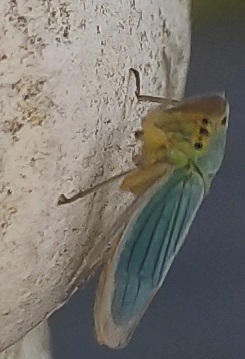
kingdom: Animalia
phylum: Arthropoda
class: Insecta
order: Hemiptera
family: Cicadellidae
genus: Cicadella
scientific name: Cicadella viridis
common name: Leafhopper
